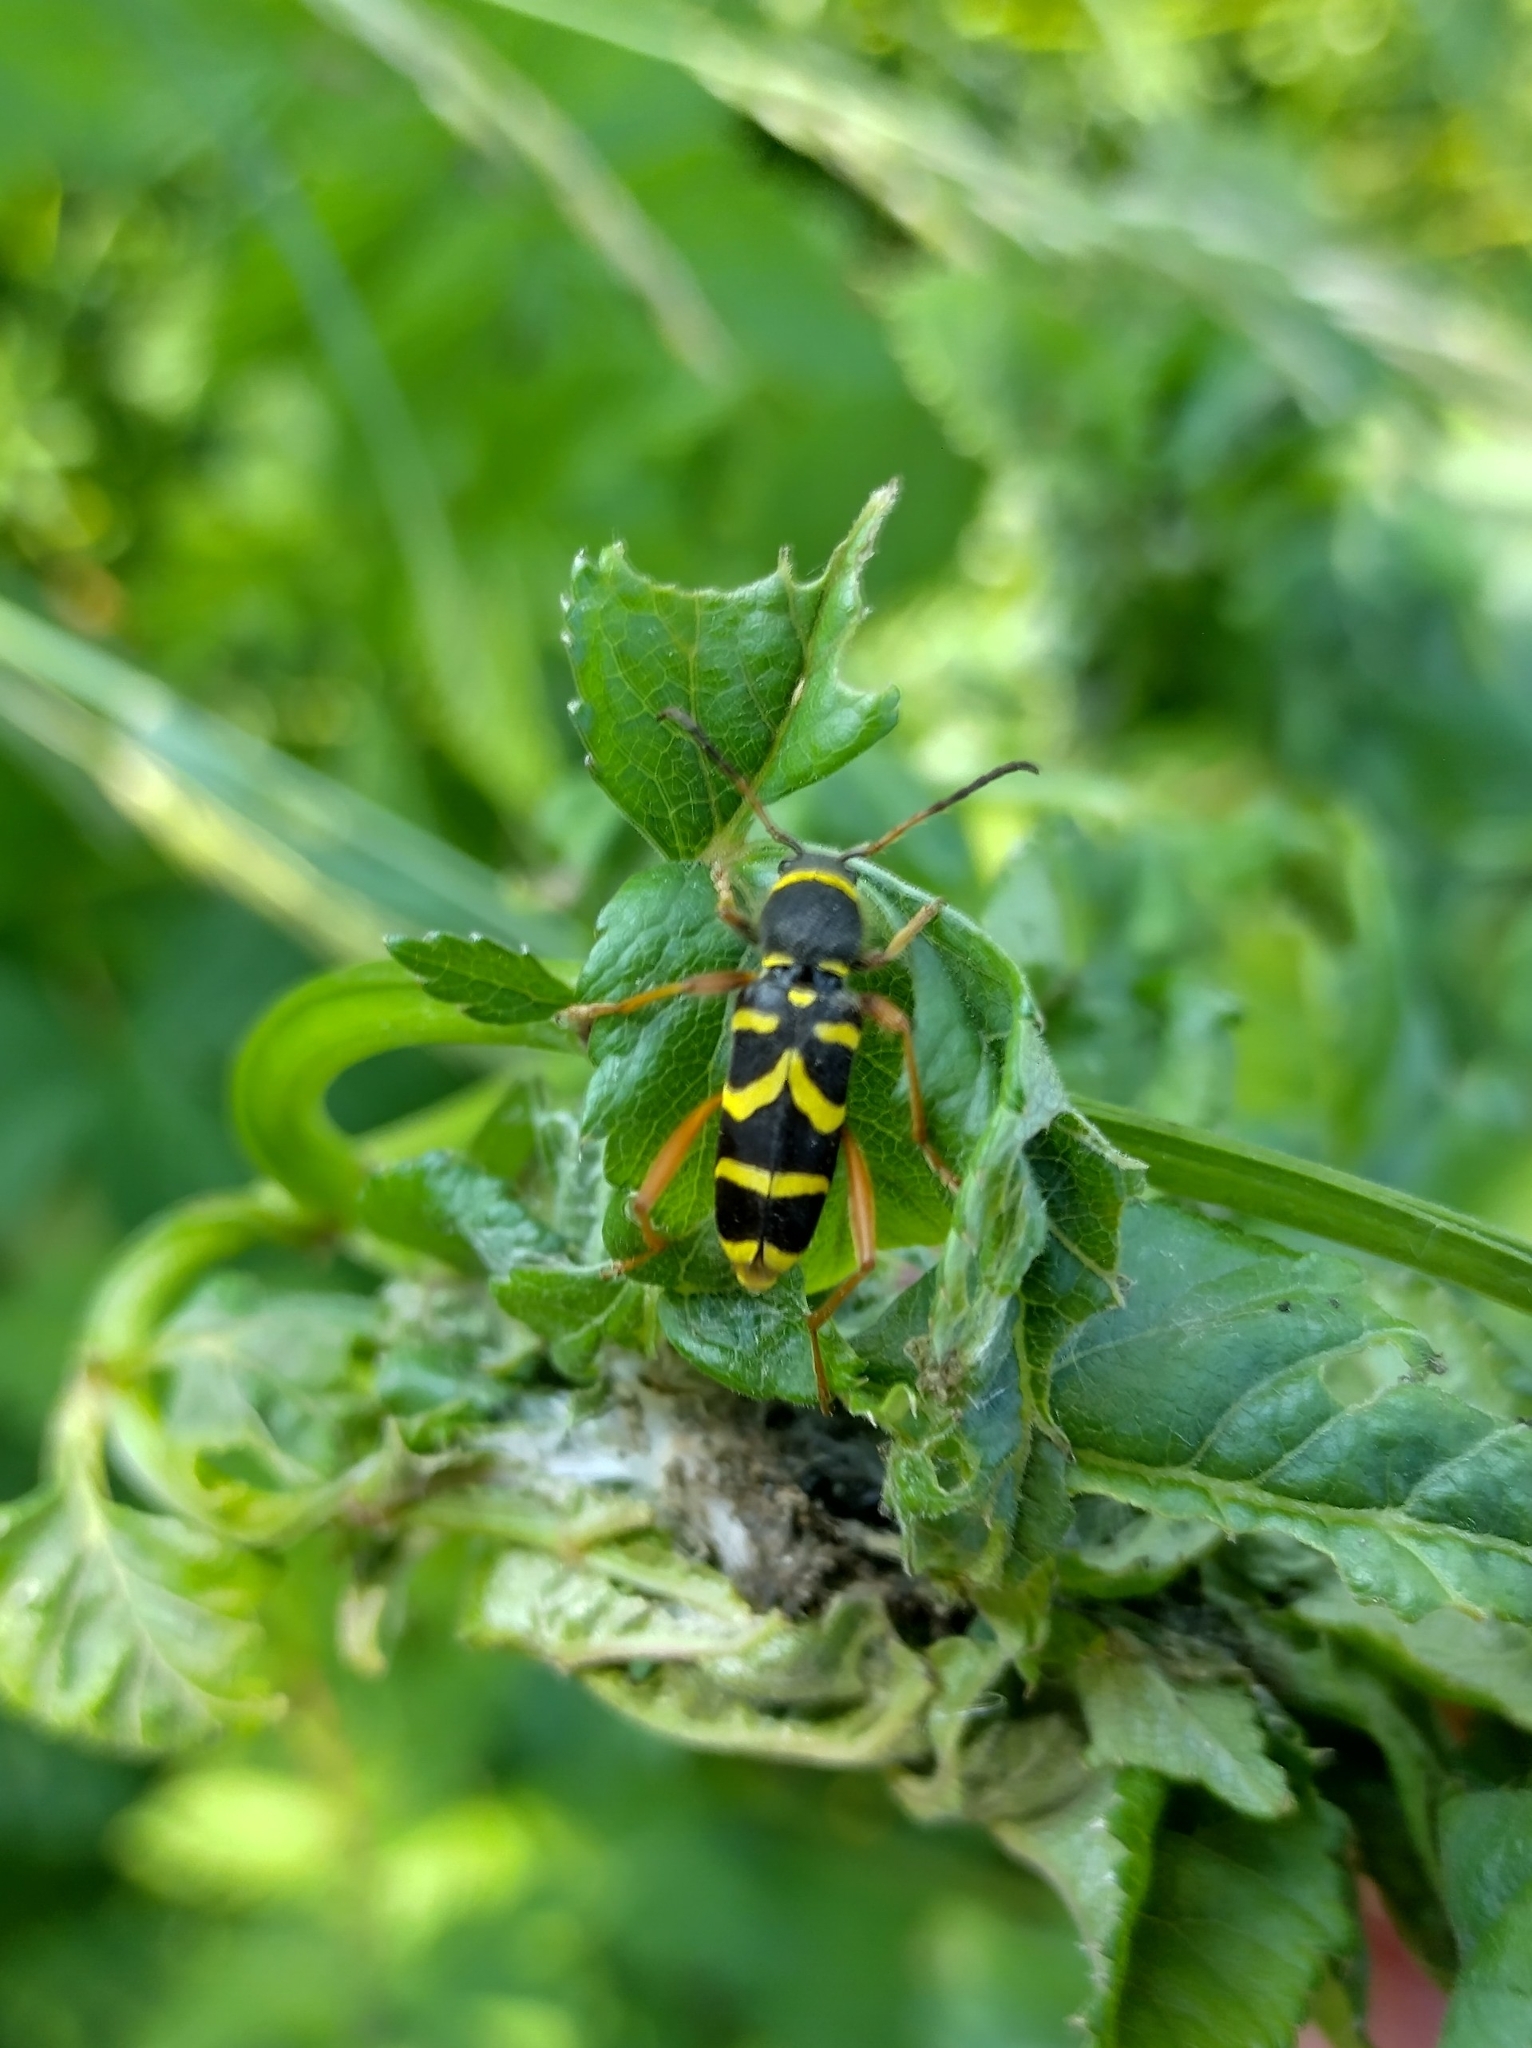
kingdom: Animalia
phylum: Arthropoda
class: Insecta
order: Coleoptera
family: Cerambycidae
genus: Clytus
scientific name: Clytus arietis
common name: Wasp beetle
